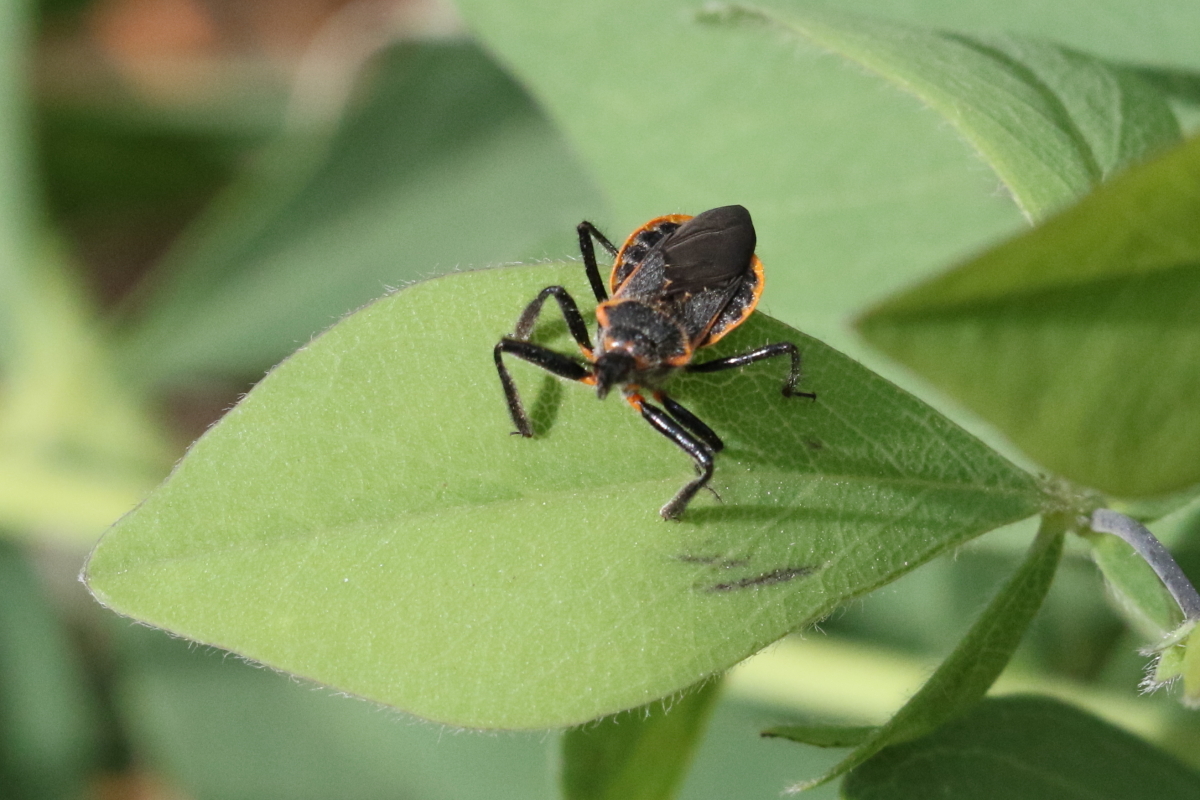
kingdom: Animalia
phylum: Arthropoda
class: Insecta
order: Hemiptera
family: Reduviidae
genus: Apiomerus
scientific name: Apiomerus crassipes
